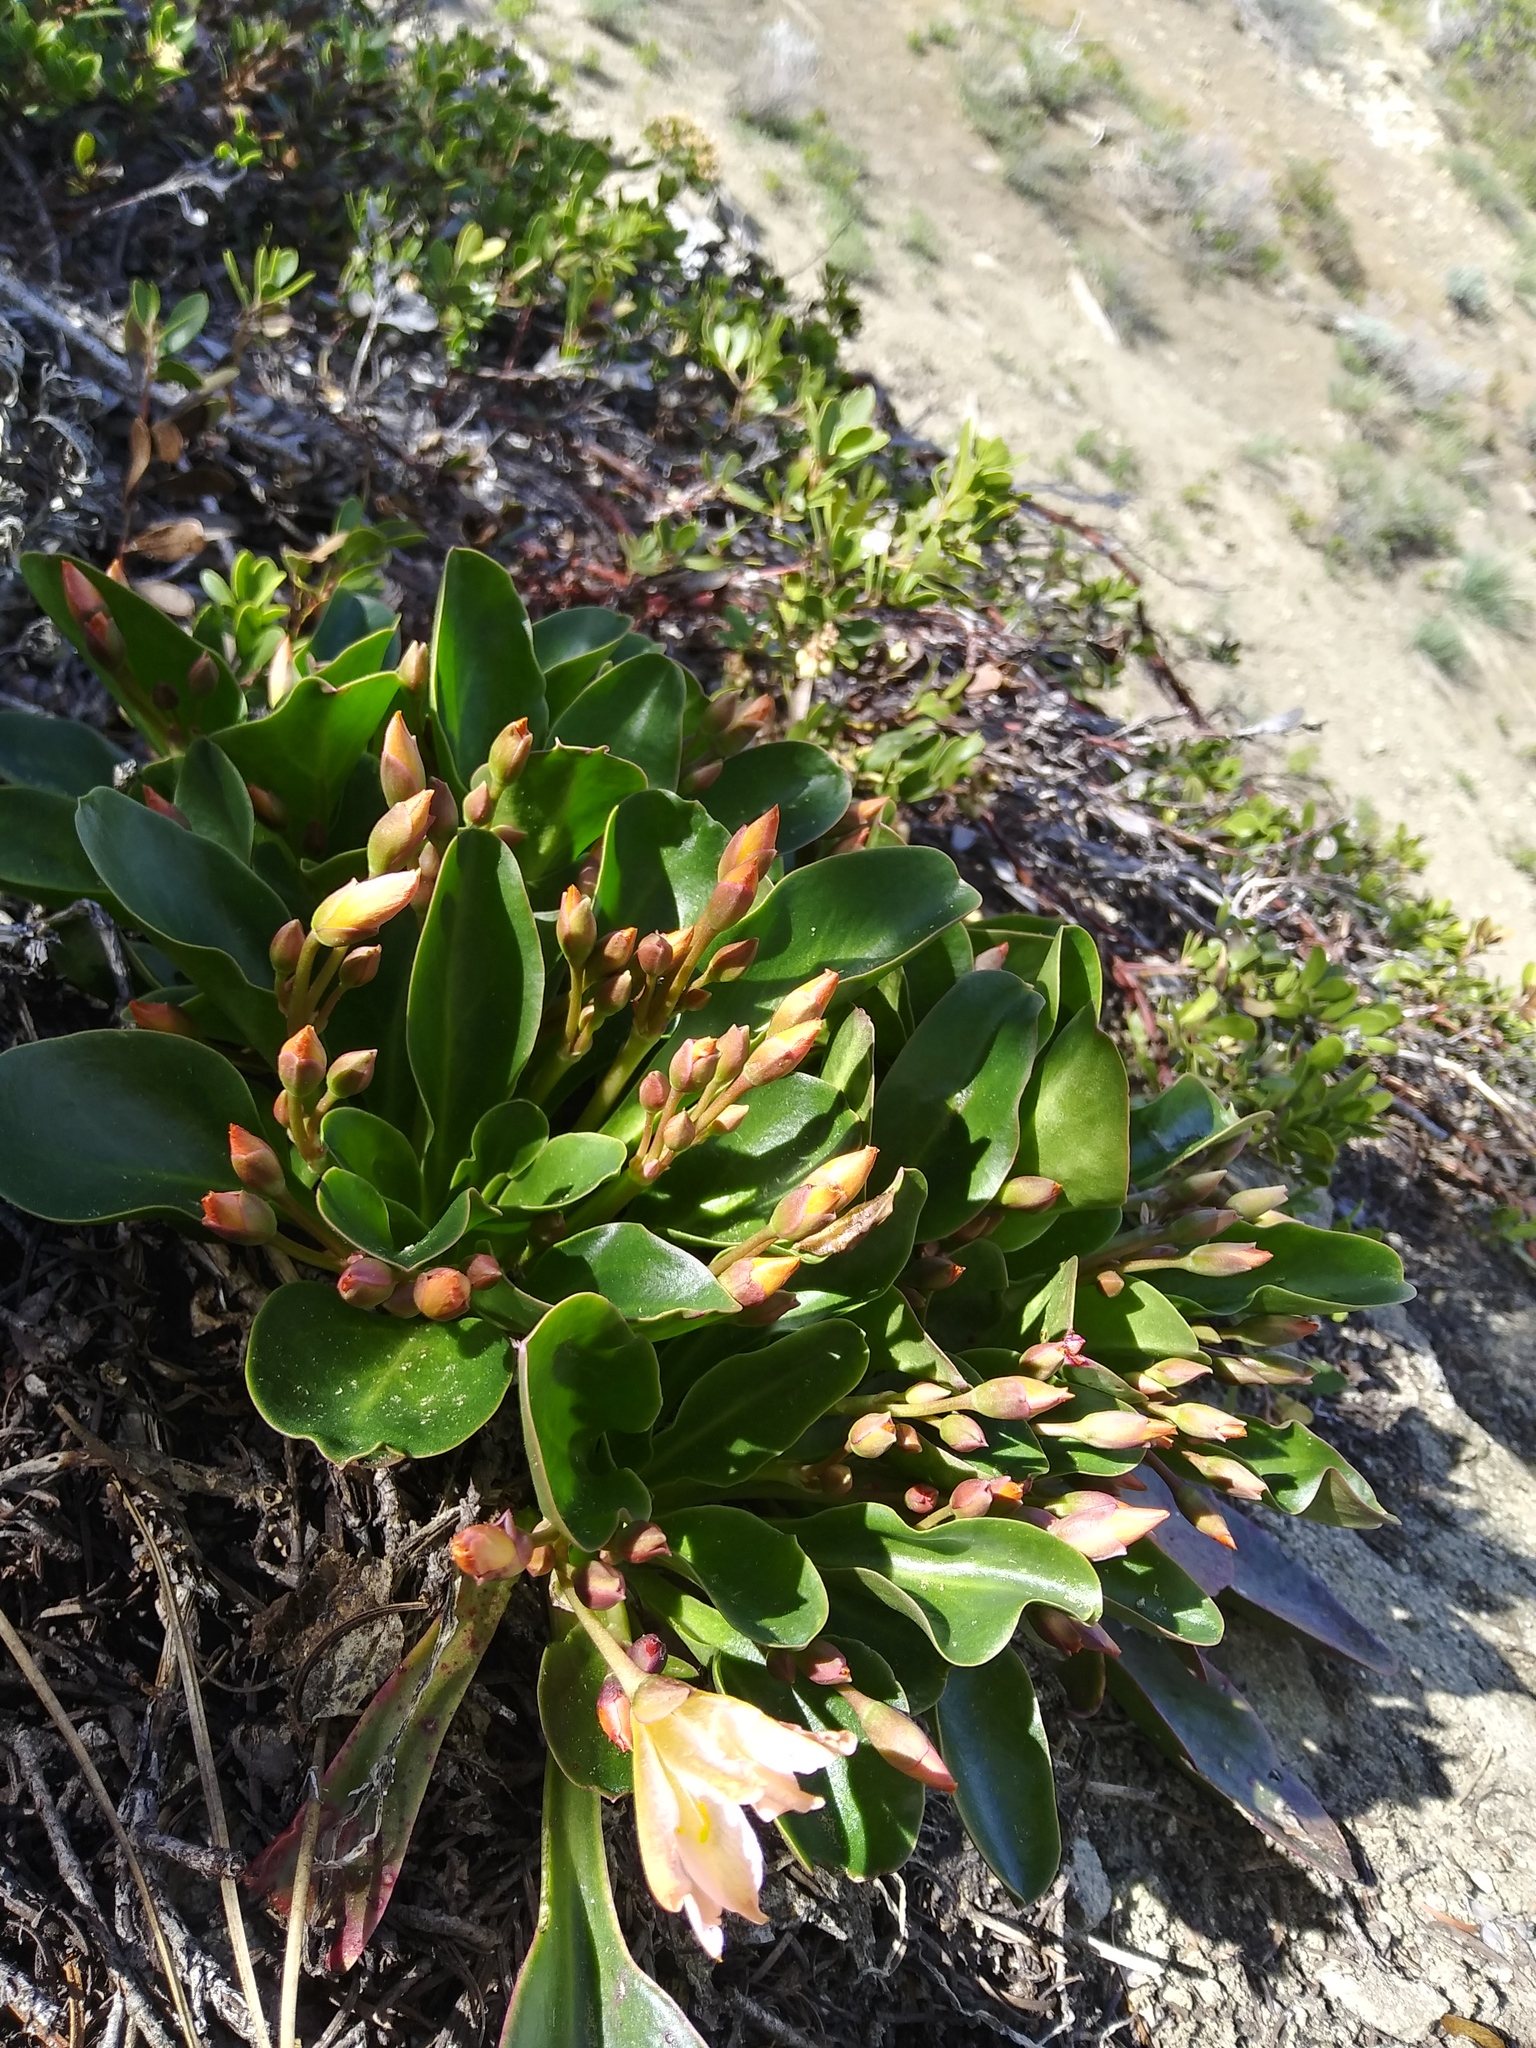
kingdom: Plantae
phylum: Tracheophyta
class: Magnoliopsida
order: Caryophyllales
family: Montiaceae
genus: Lewisiopsis
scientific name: Lewisiopsis tweedyi
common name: Tweedy's pussypaws
